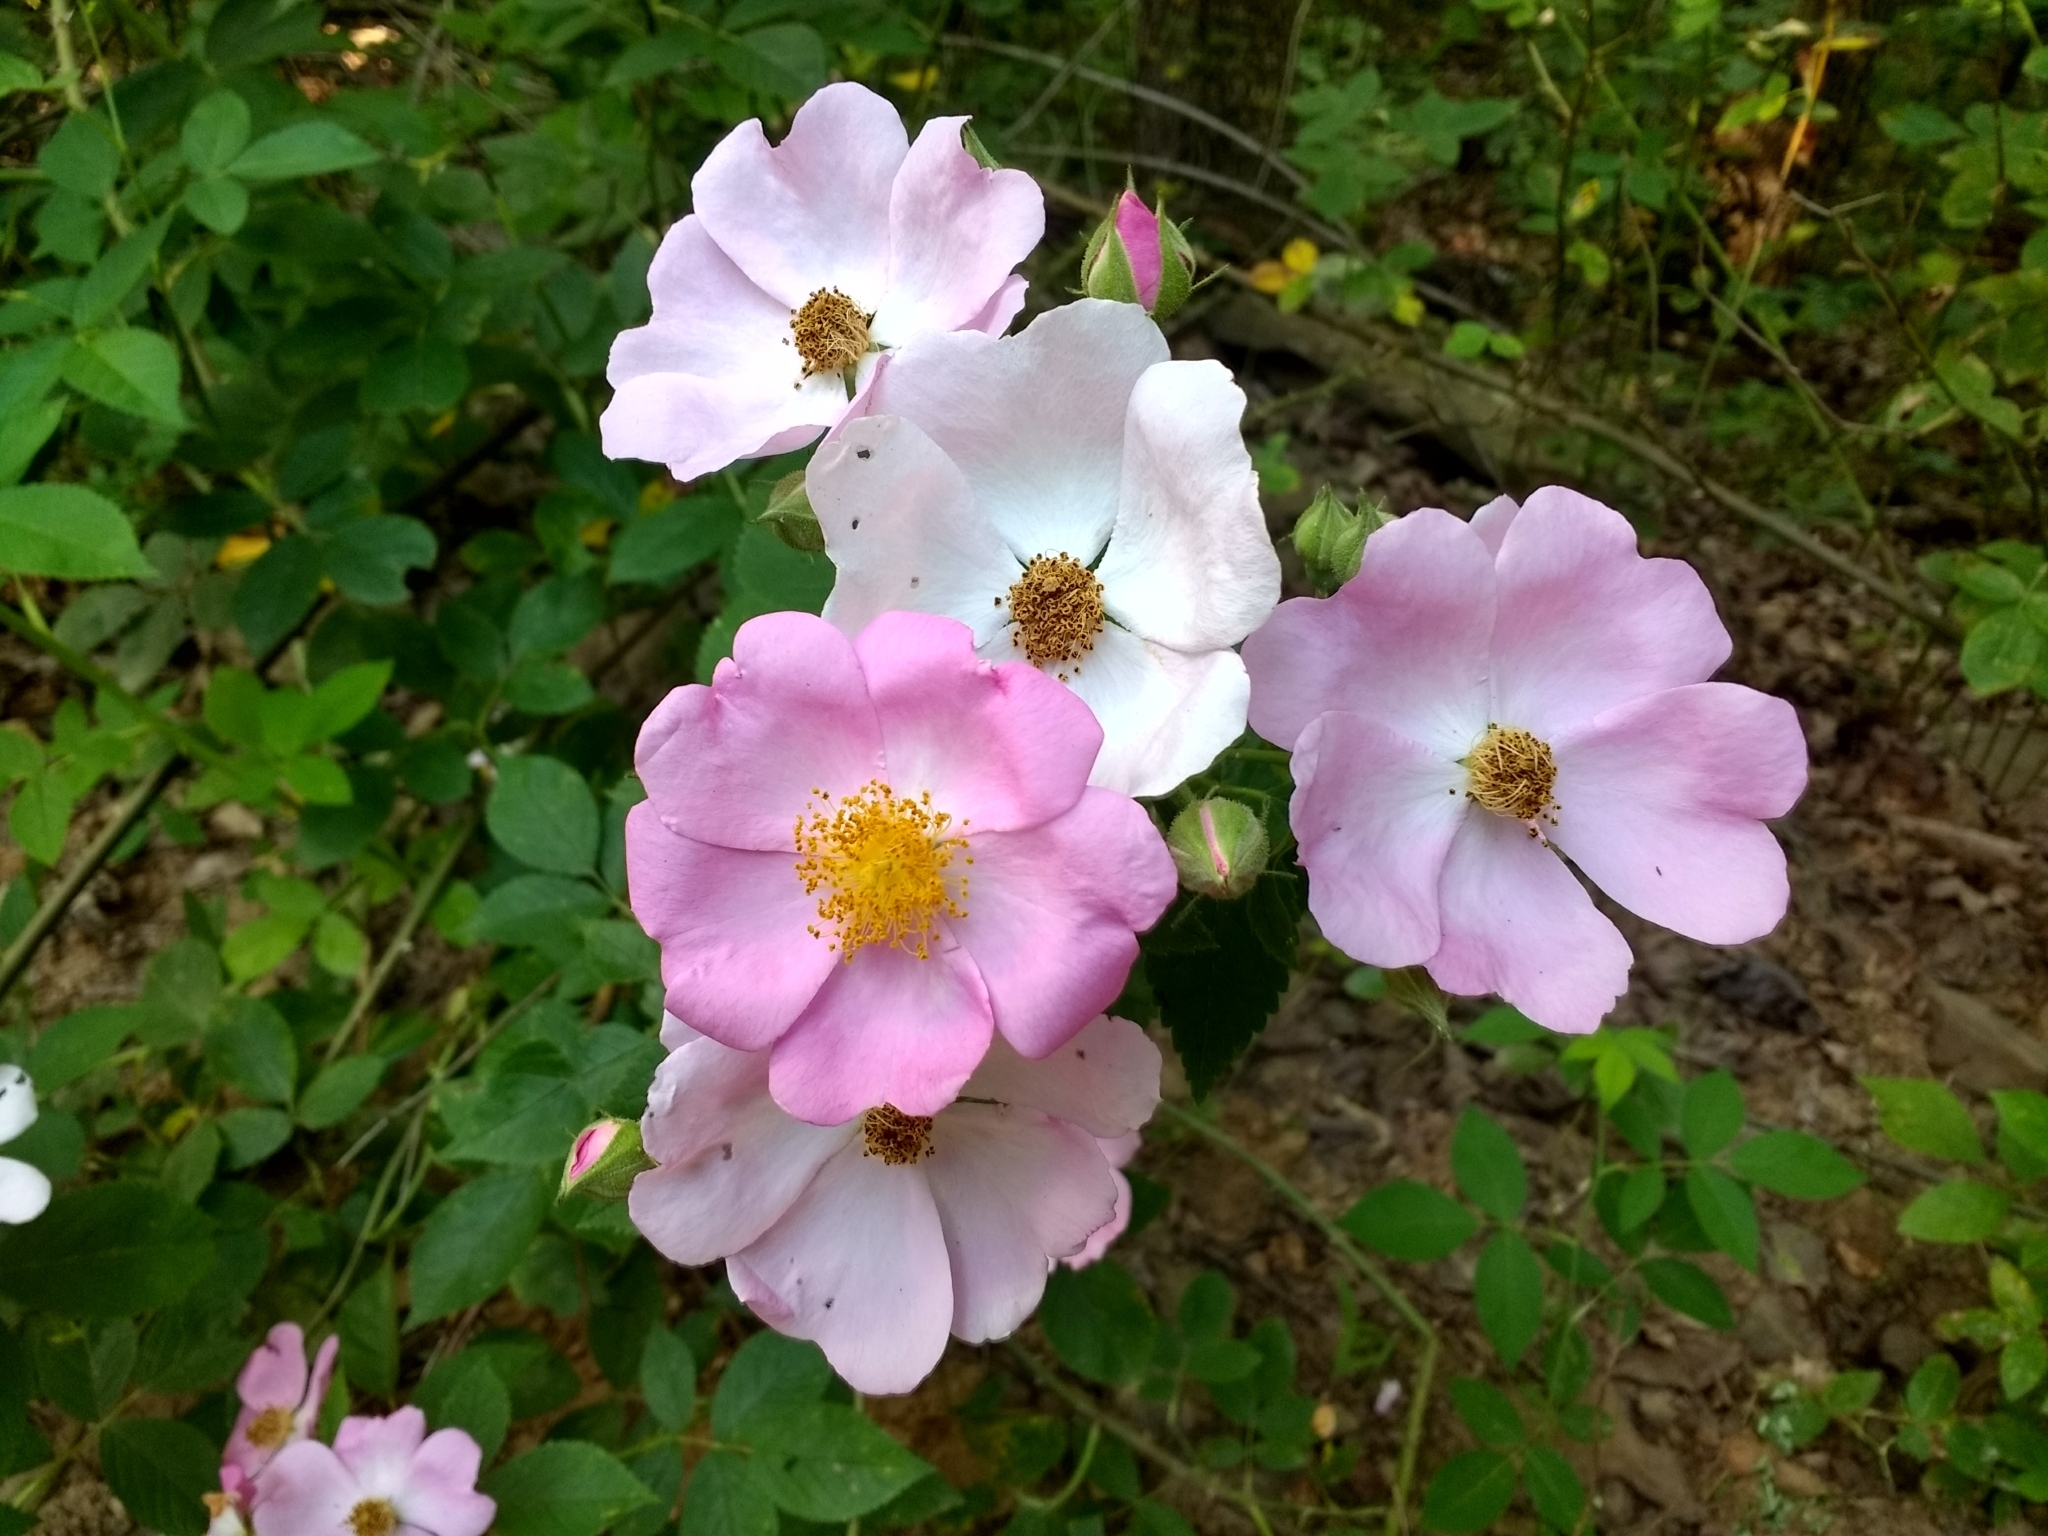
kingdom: Plantae
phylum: Tracheophyta
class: Magnoliopsida
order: Rosales
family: Rosaceae
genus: Rosa
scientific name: Rosa setigera
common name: Prairie rose
